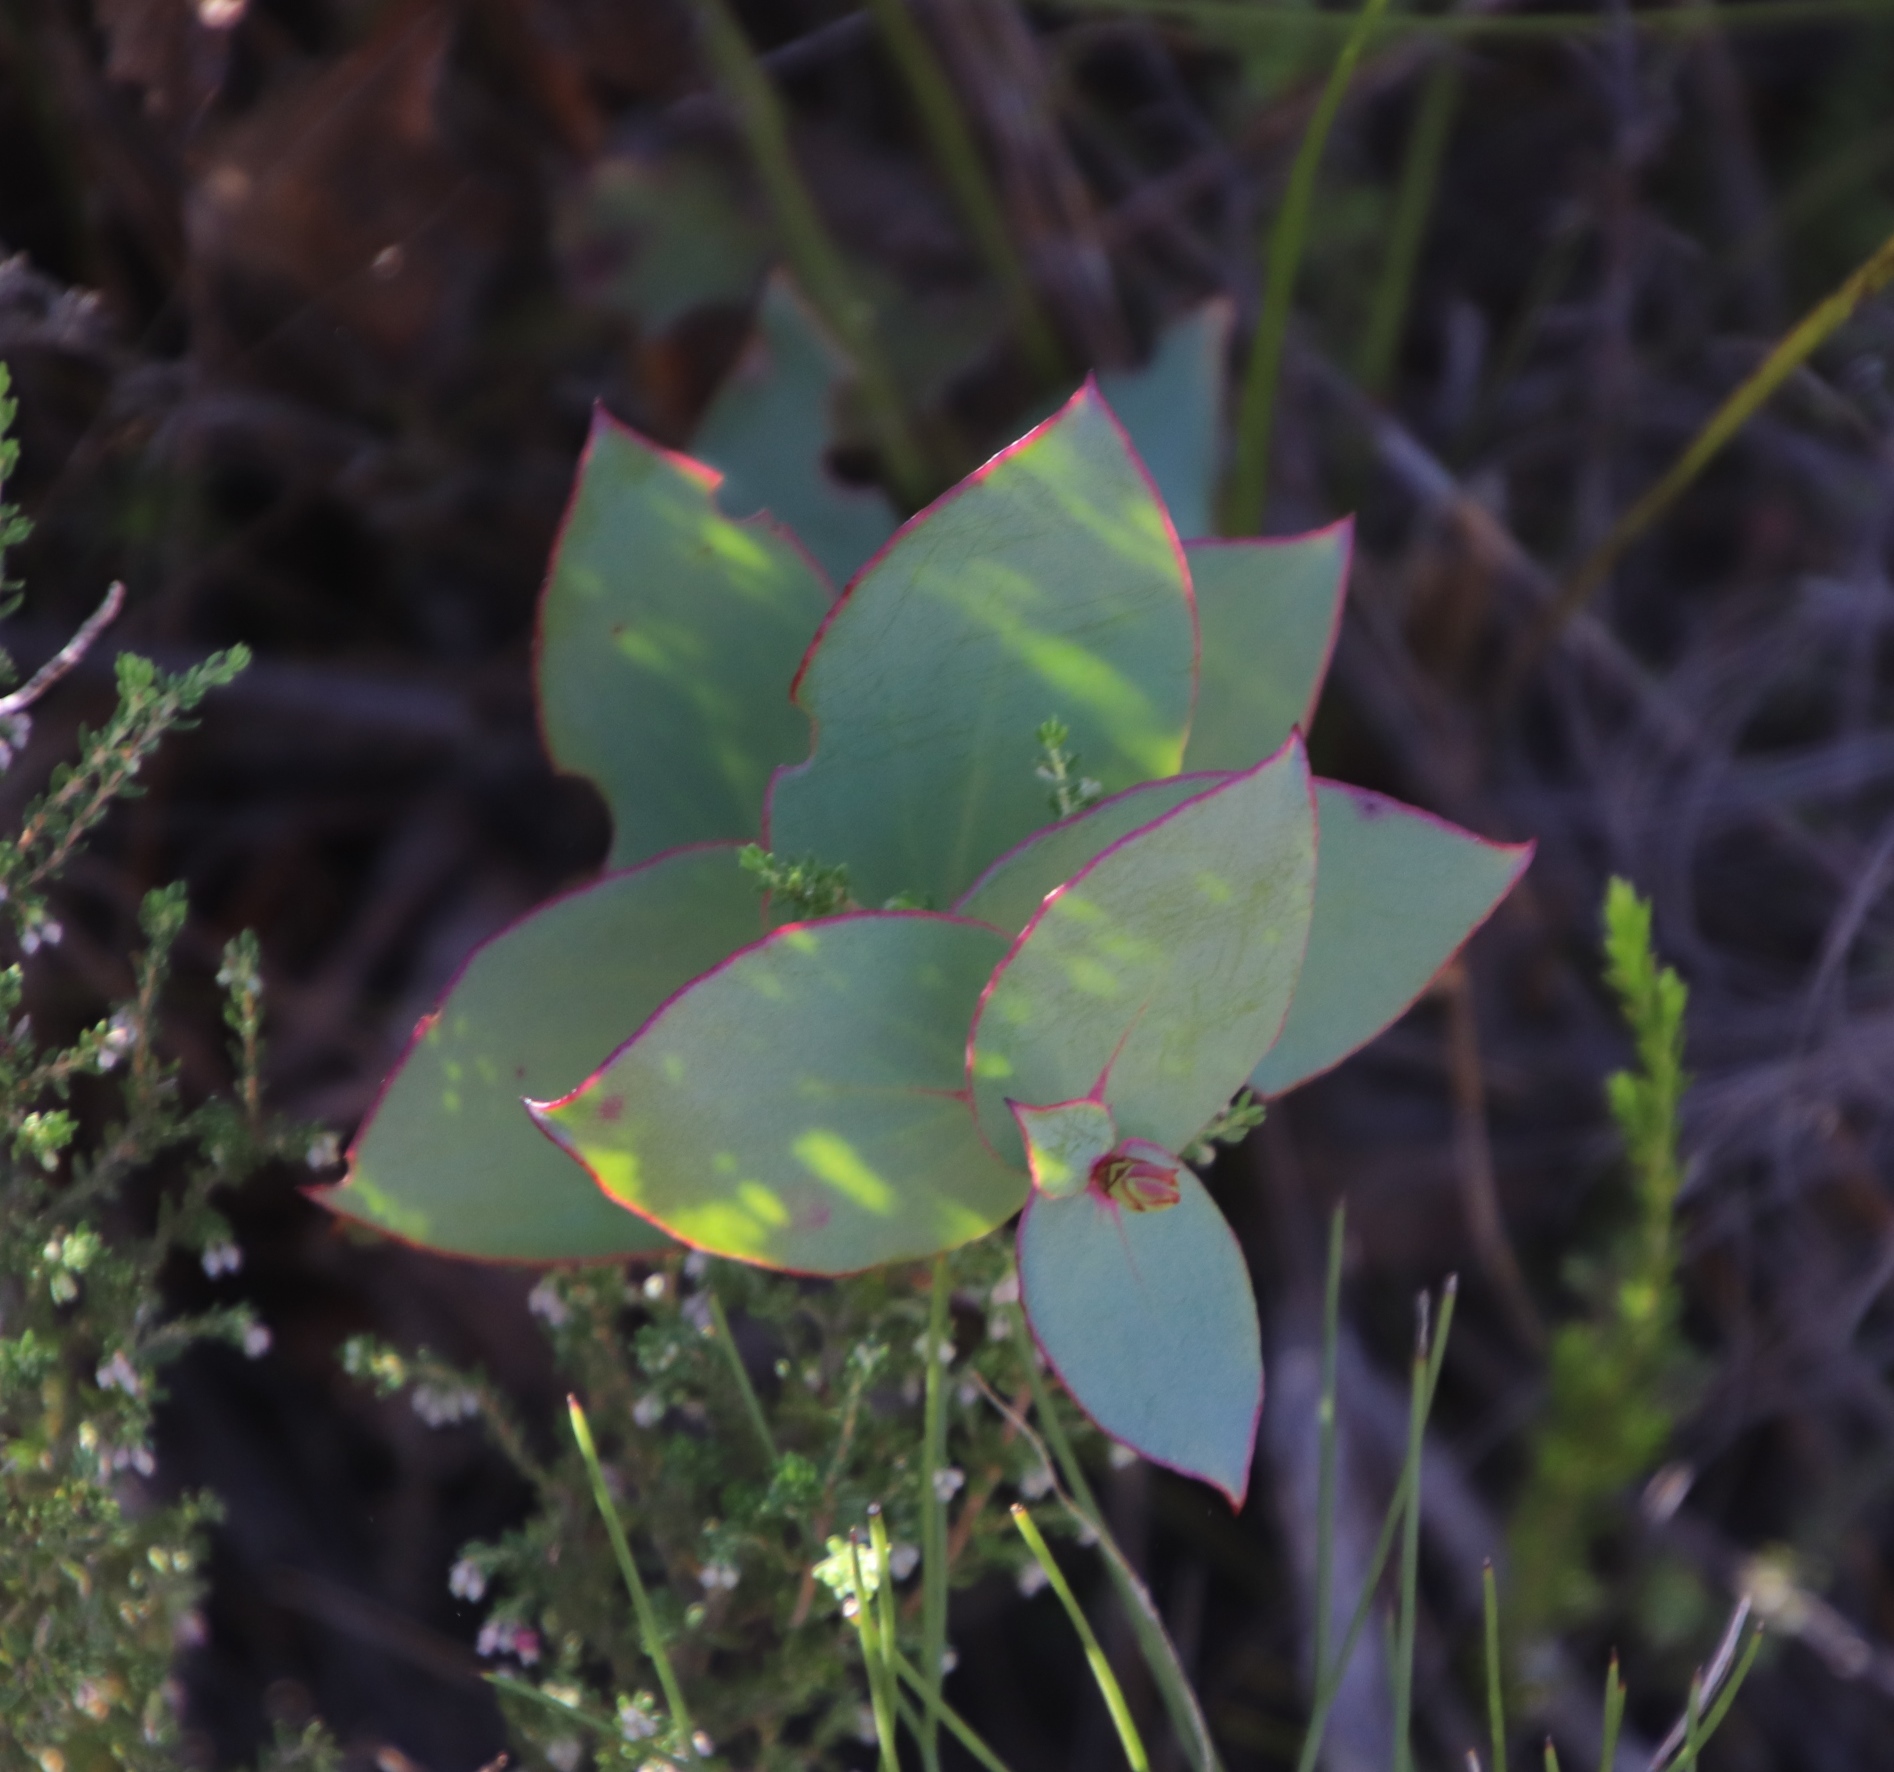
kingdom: Plantae
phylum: Tracheophyta
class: Magnoliopsida
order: Proteales
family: Proteaceae
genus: Protea
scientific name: Protea amplexicaulis
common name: Clasping-leaf sugarbush
